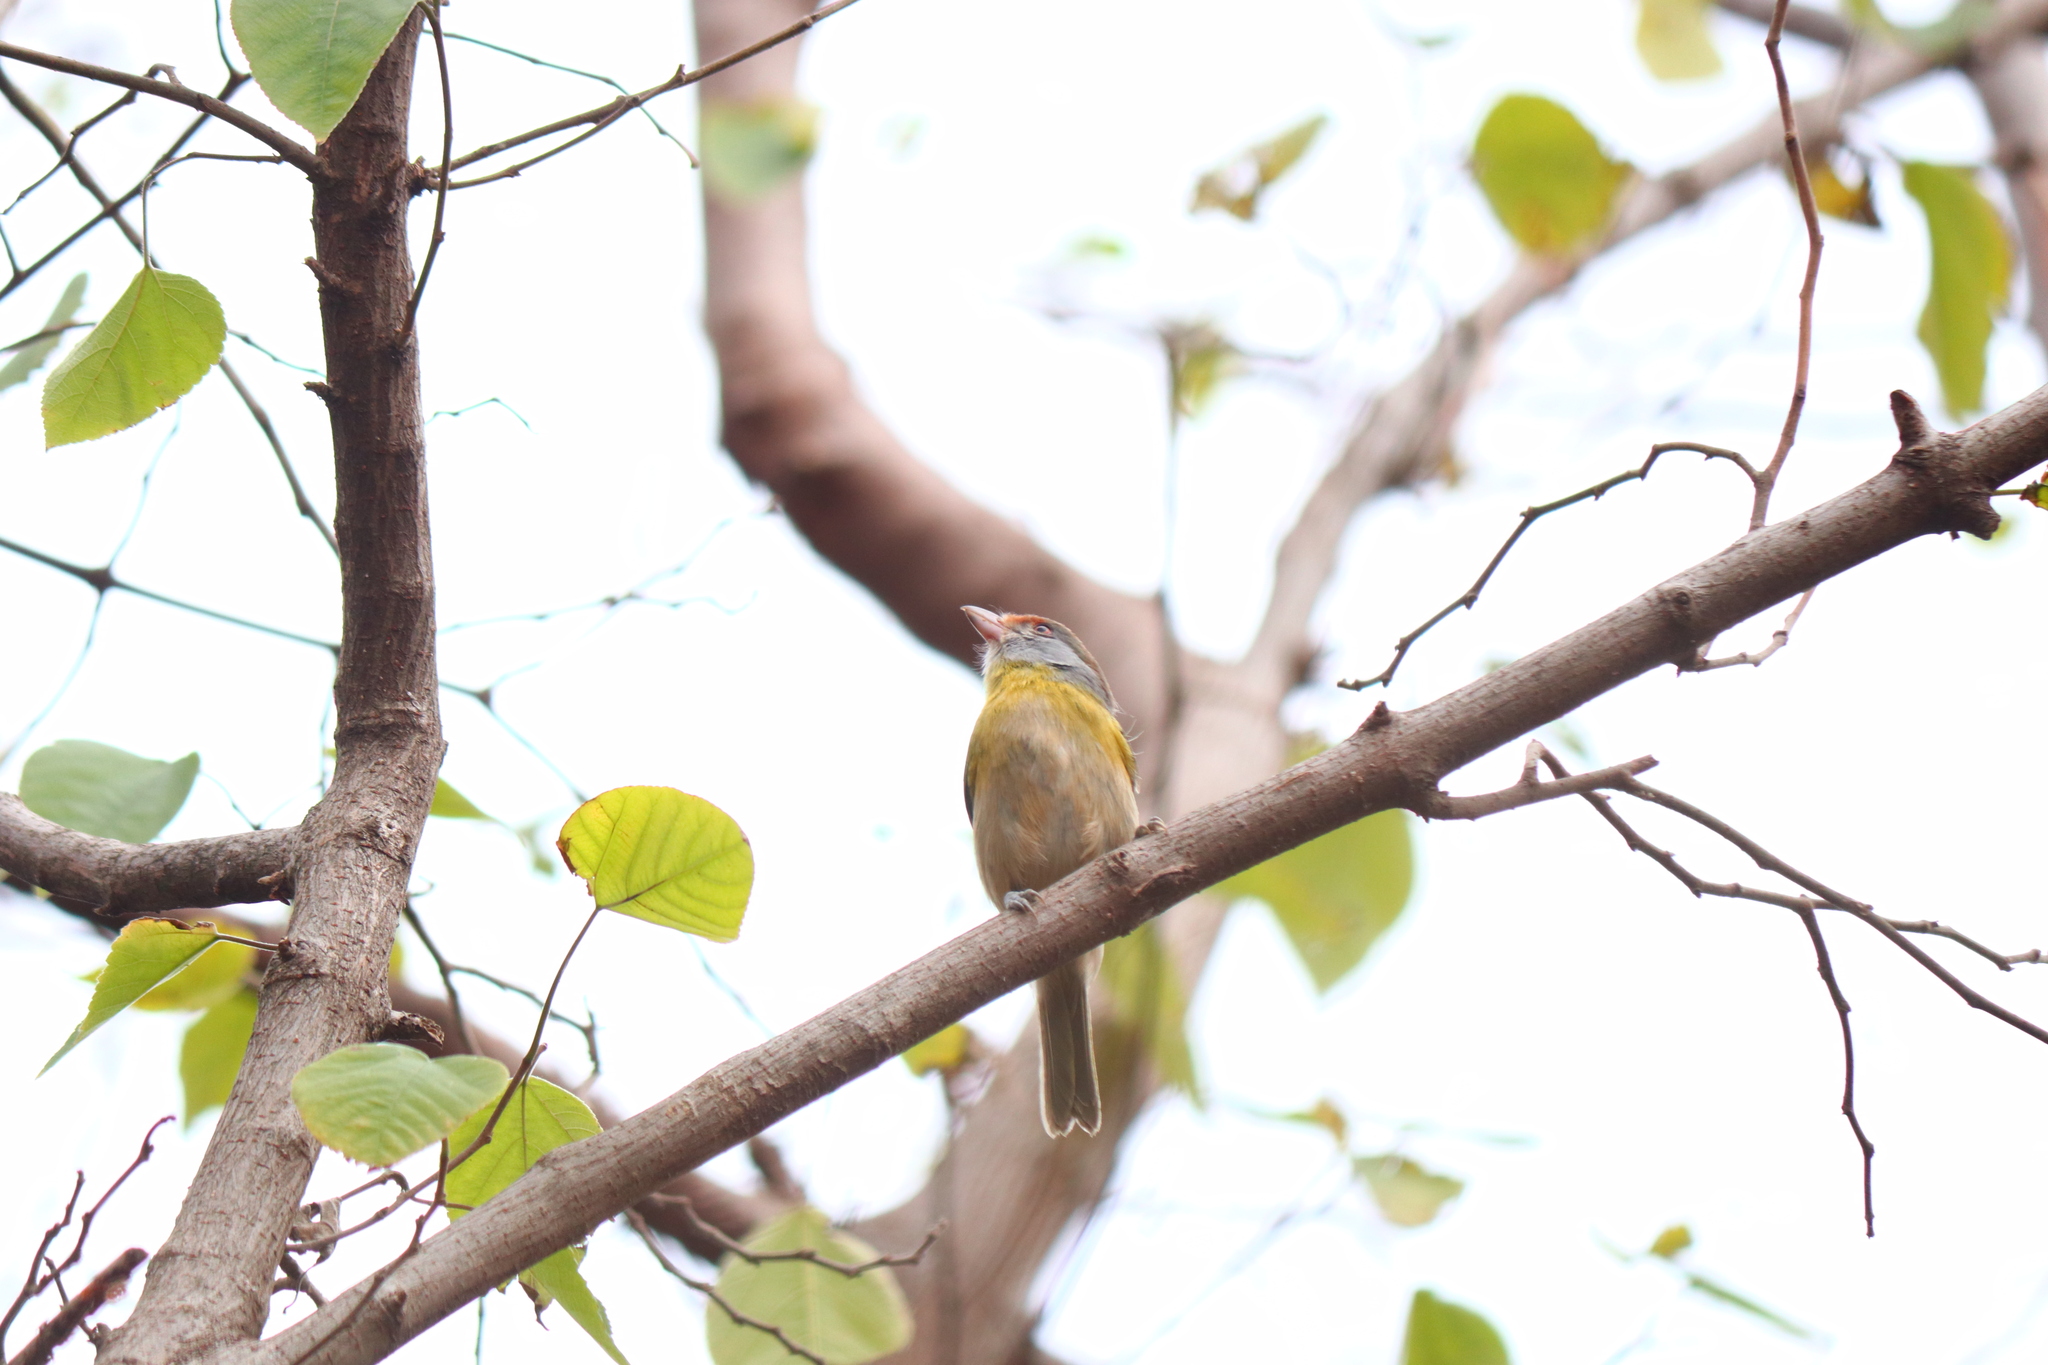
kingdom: Animalia
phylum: Chordata
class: Aves
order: Passeriformes
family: Vireonidae
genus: Cyclarhis
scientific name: Cyclarhis gujanensis
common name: Rufous-browed peppershrike
